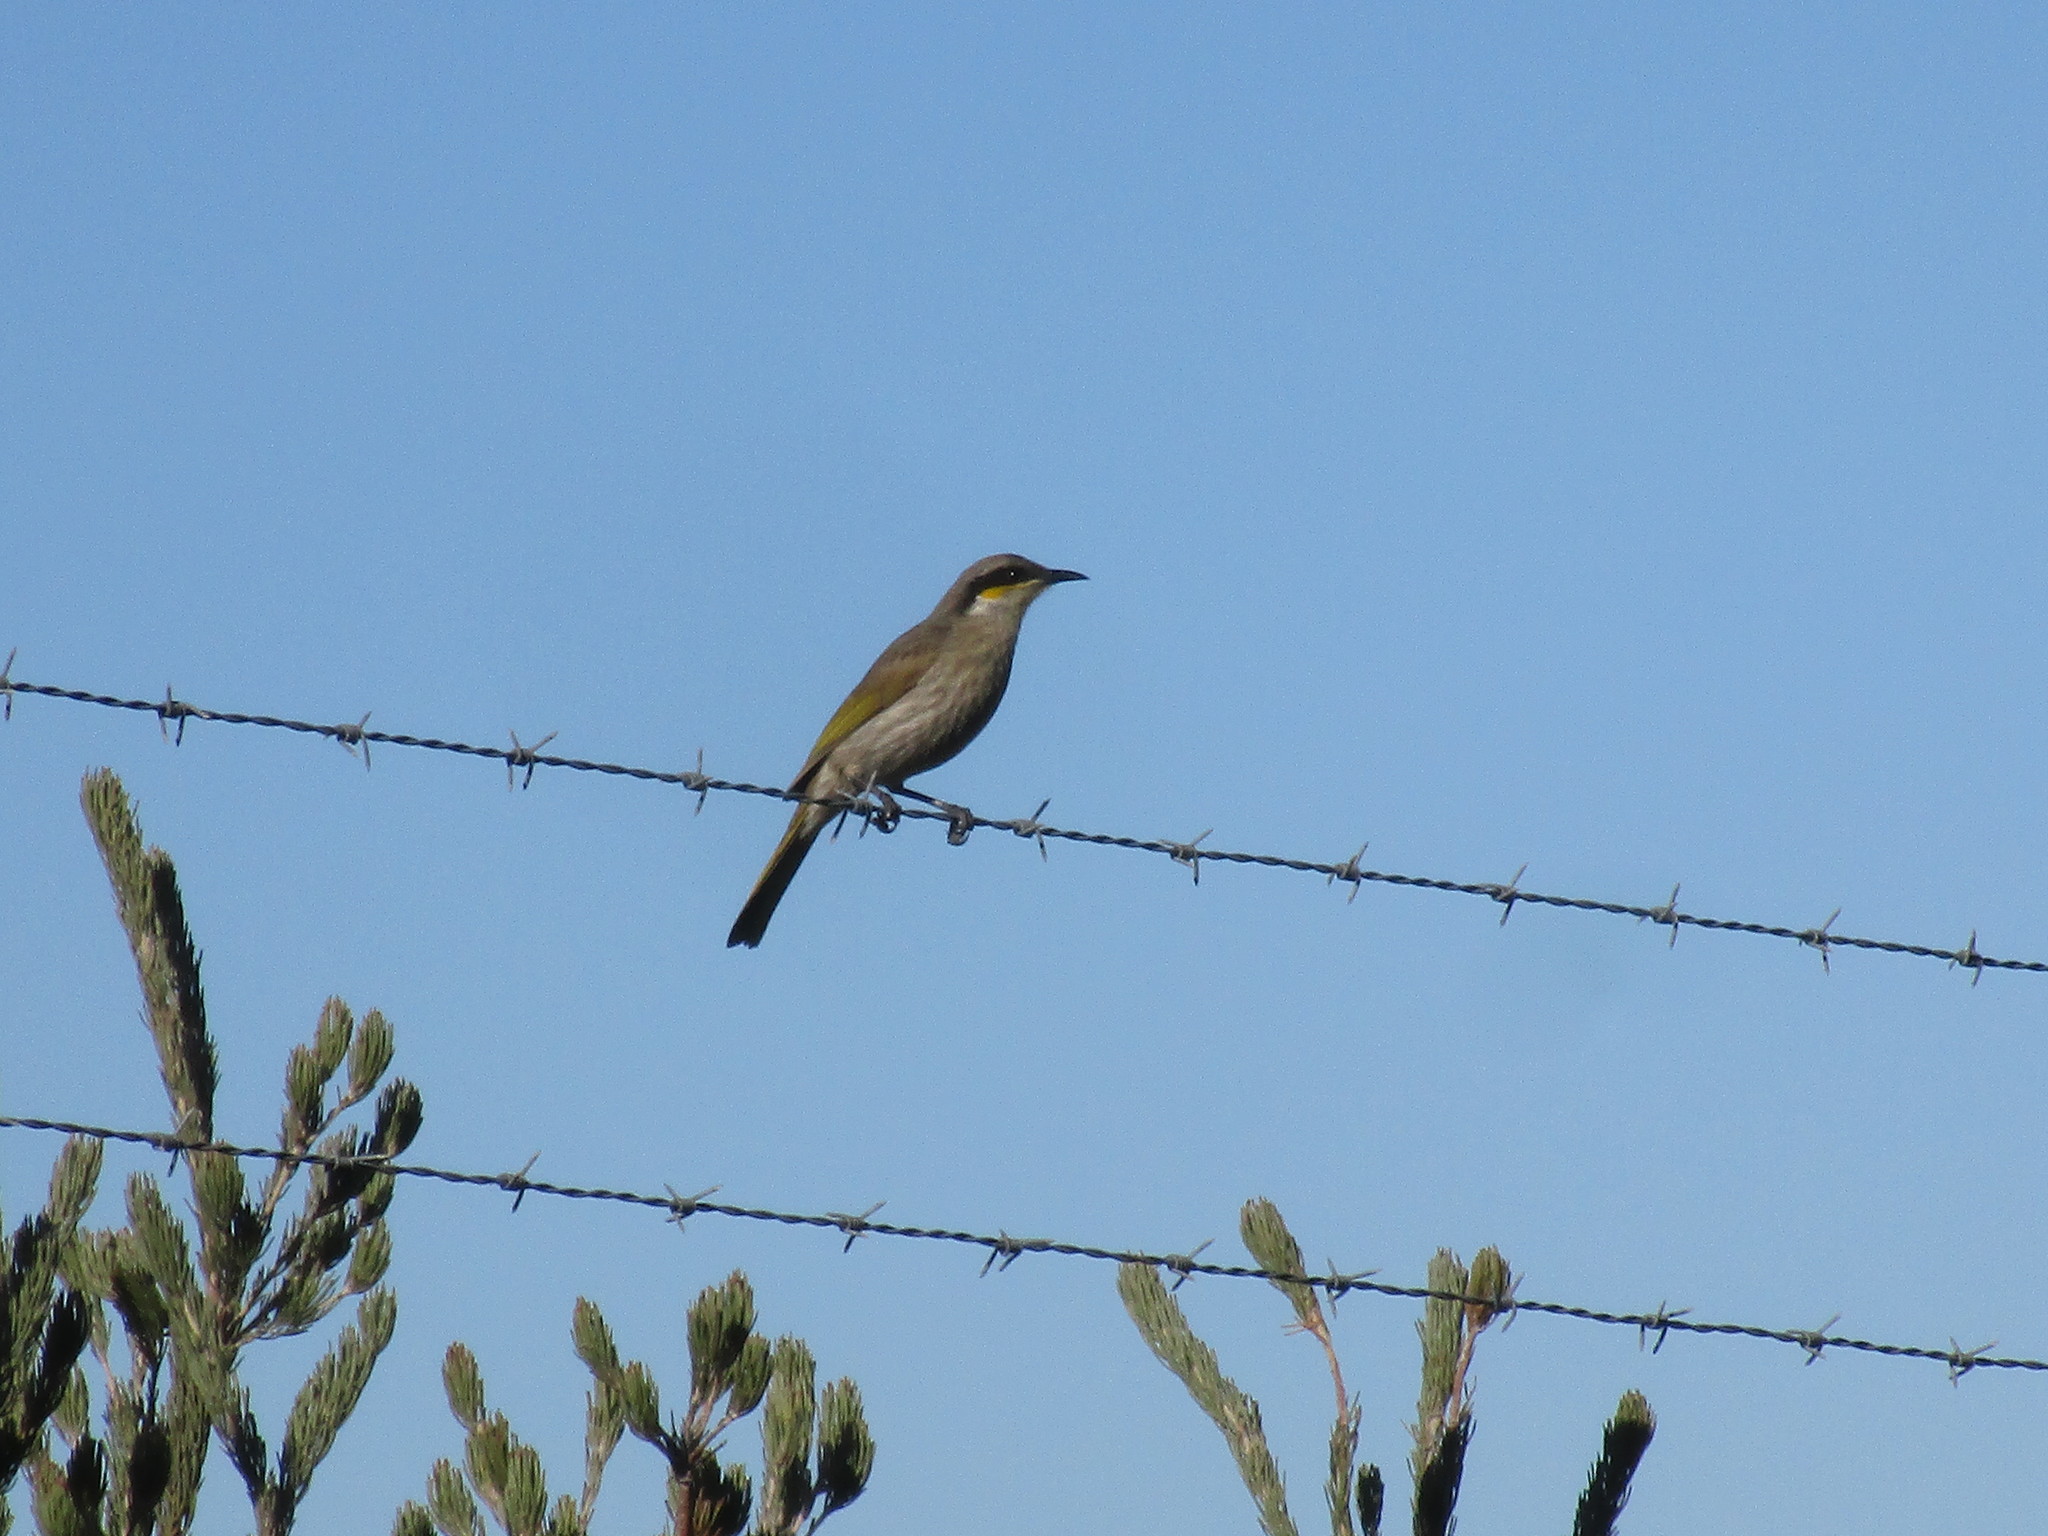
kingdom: Animalia
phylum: Chordata
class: Aves
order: Passeriformes
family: Meliphagidae
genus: Gavicalis
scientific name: Gavicalis virescens
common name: Singing honeyeater
